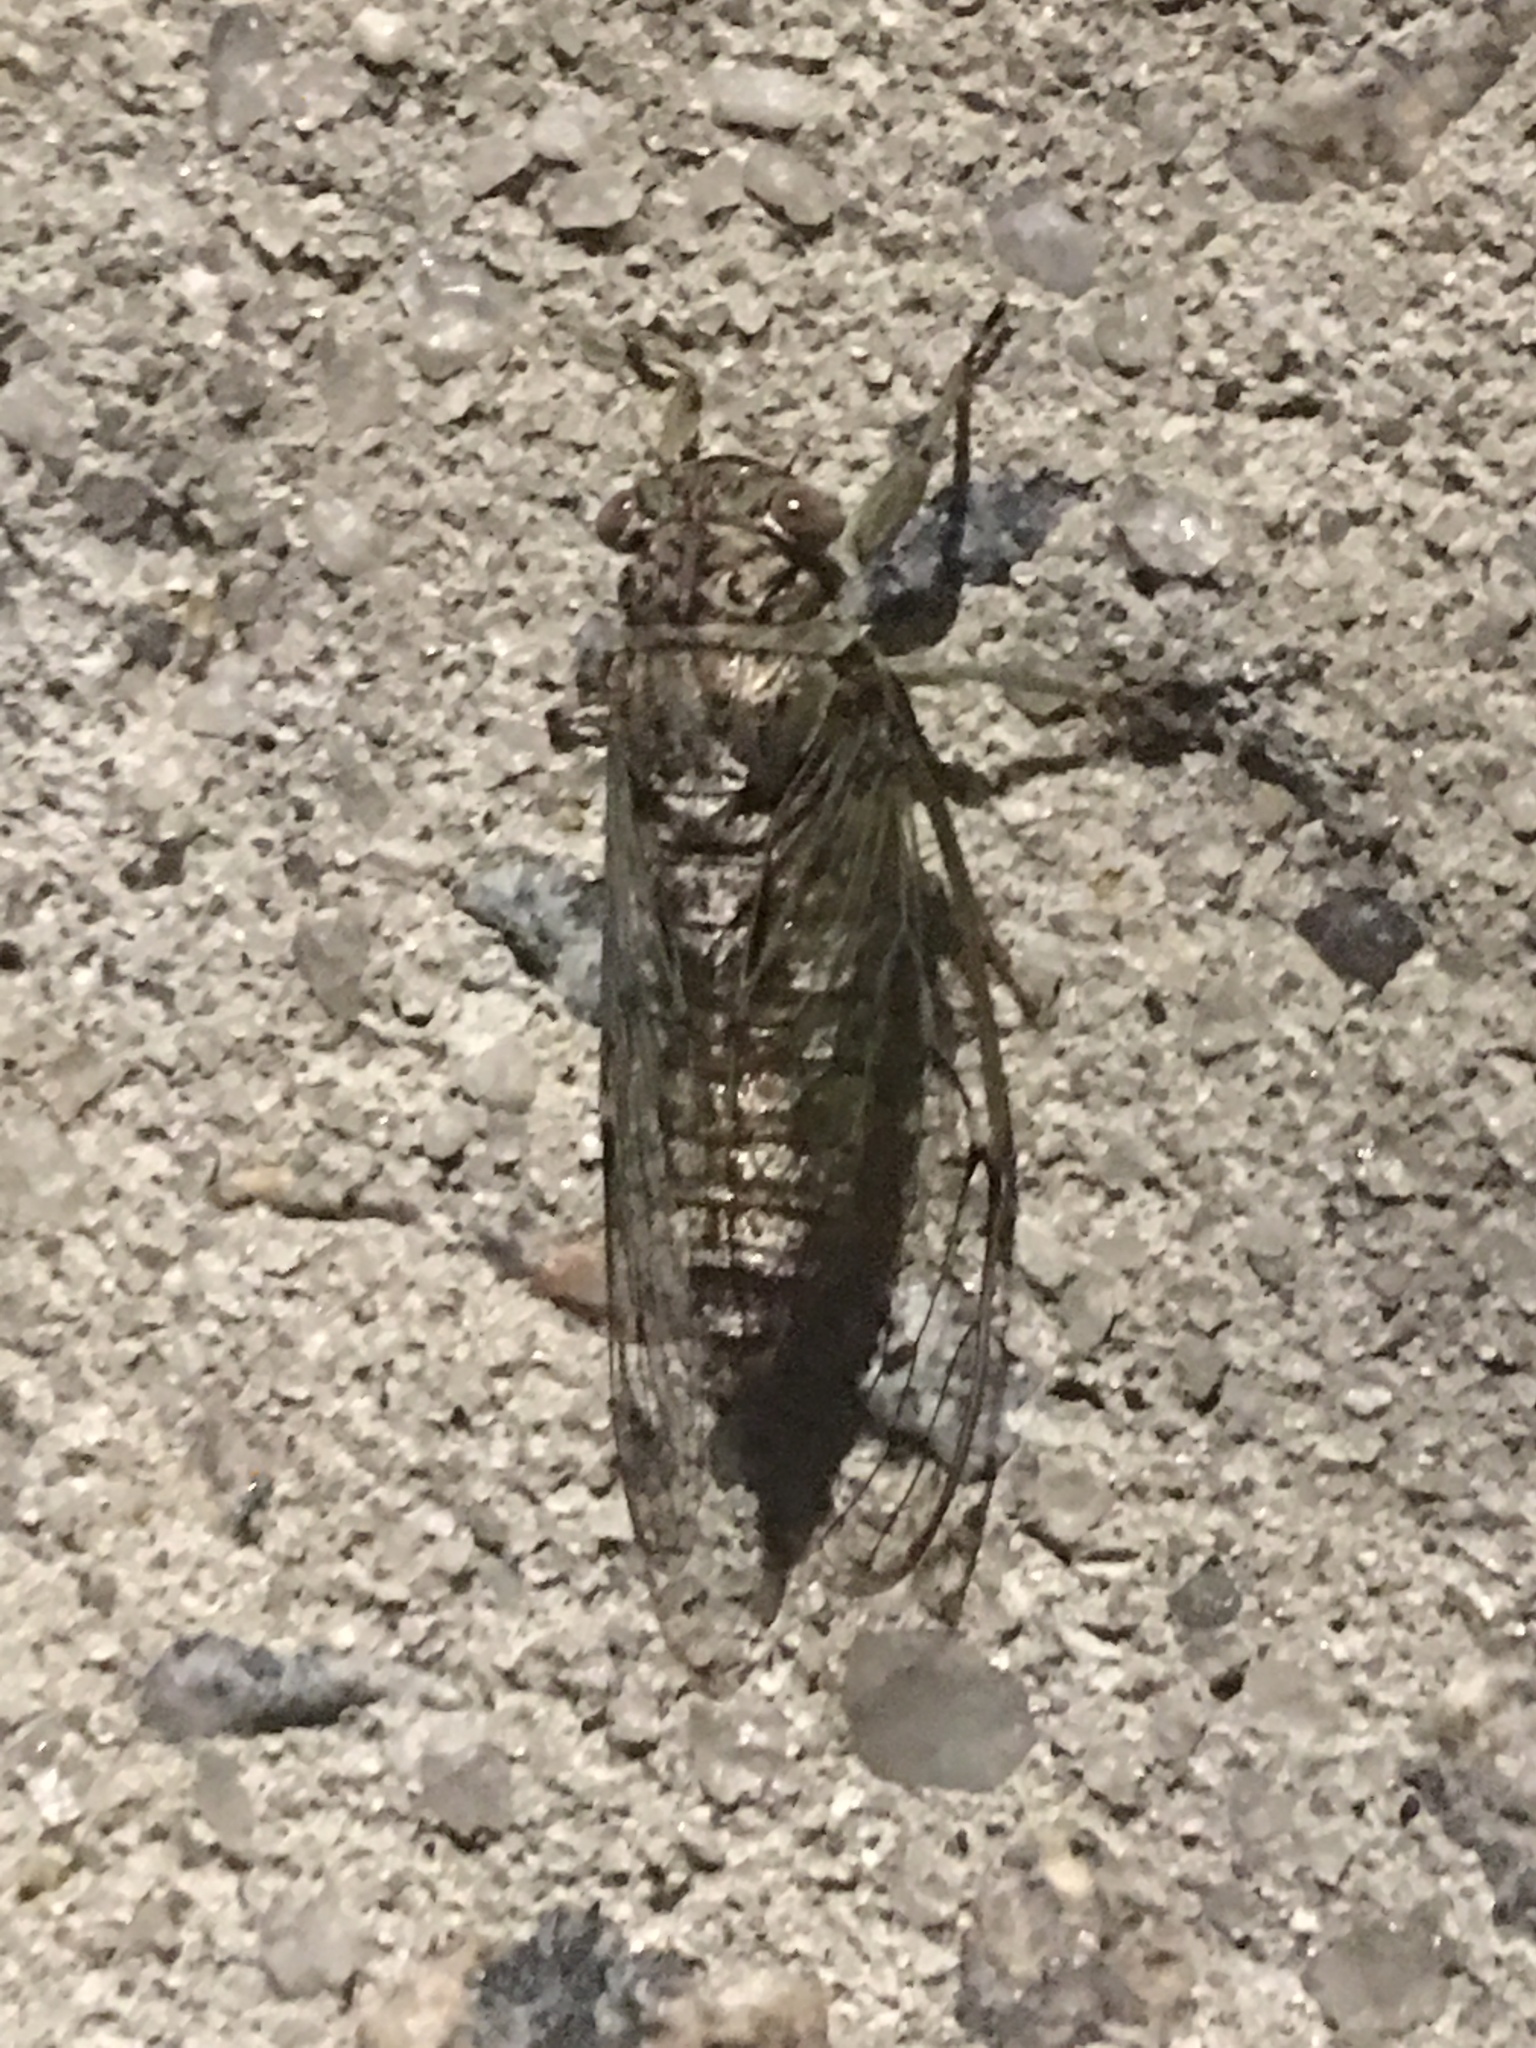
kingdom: Animalia
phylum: Arthropoda
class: Insecta
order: Hemiptera
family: Cicadidae
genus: Neocicada
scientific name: Neocicada hieroglyphica
